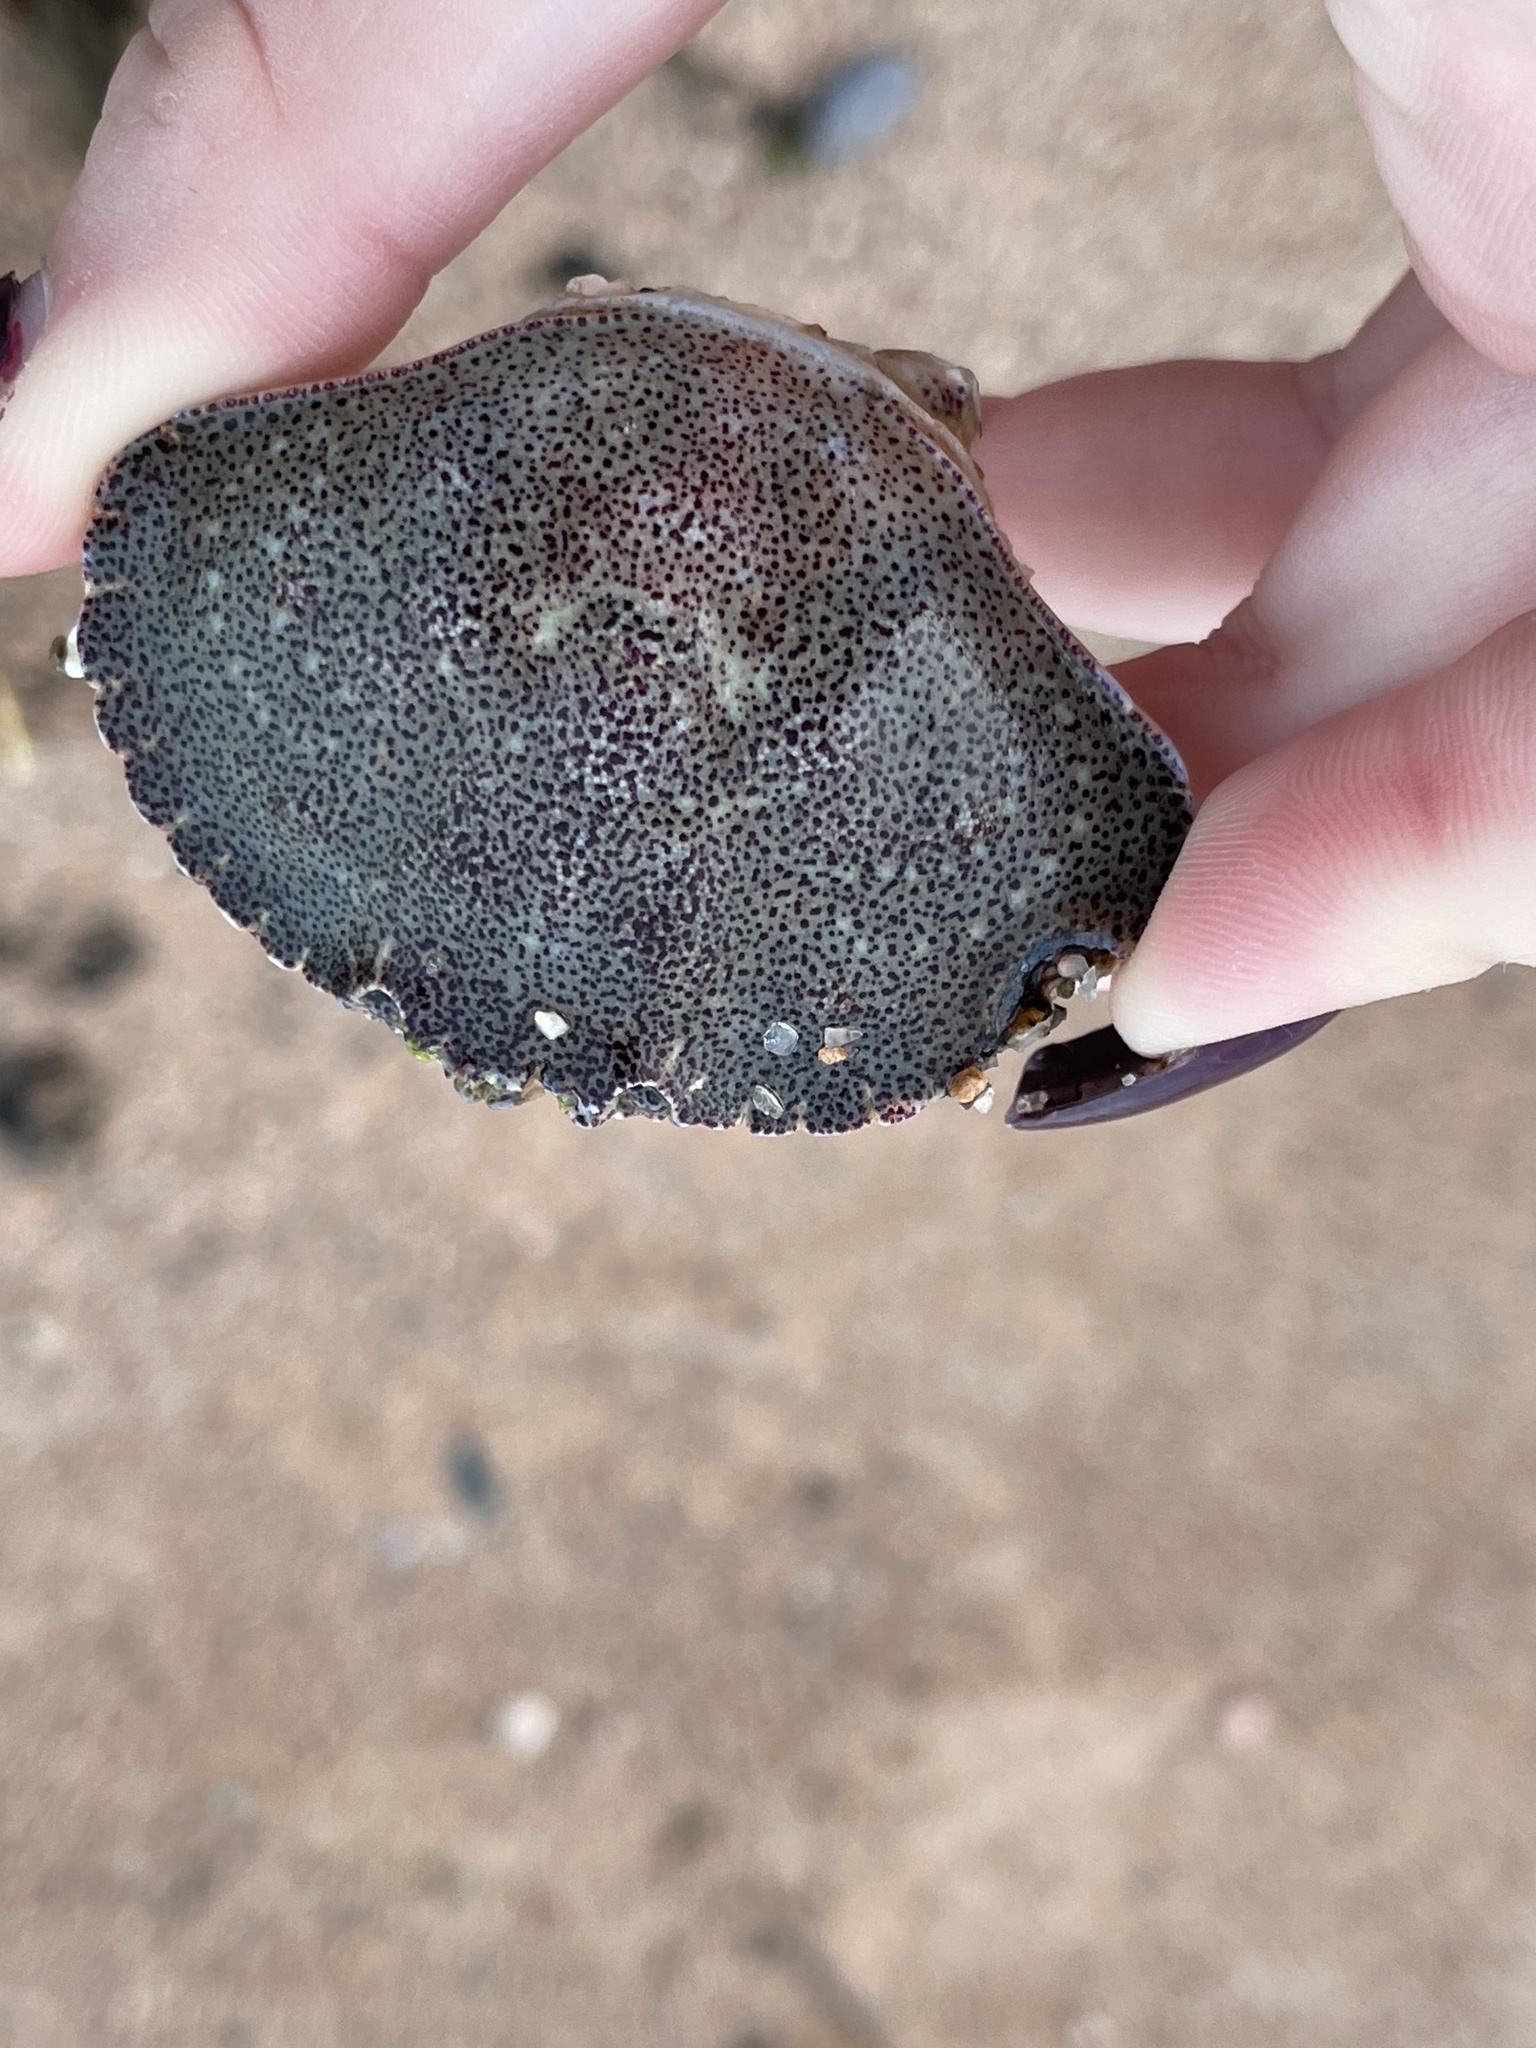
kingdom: Animalia
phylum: Arthropoda
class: Malacostraca
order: Decapoda
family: Cancridae
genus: Cancer
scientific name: Cancer irroratus
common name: Atlantic rock crab
